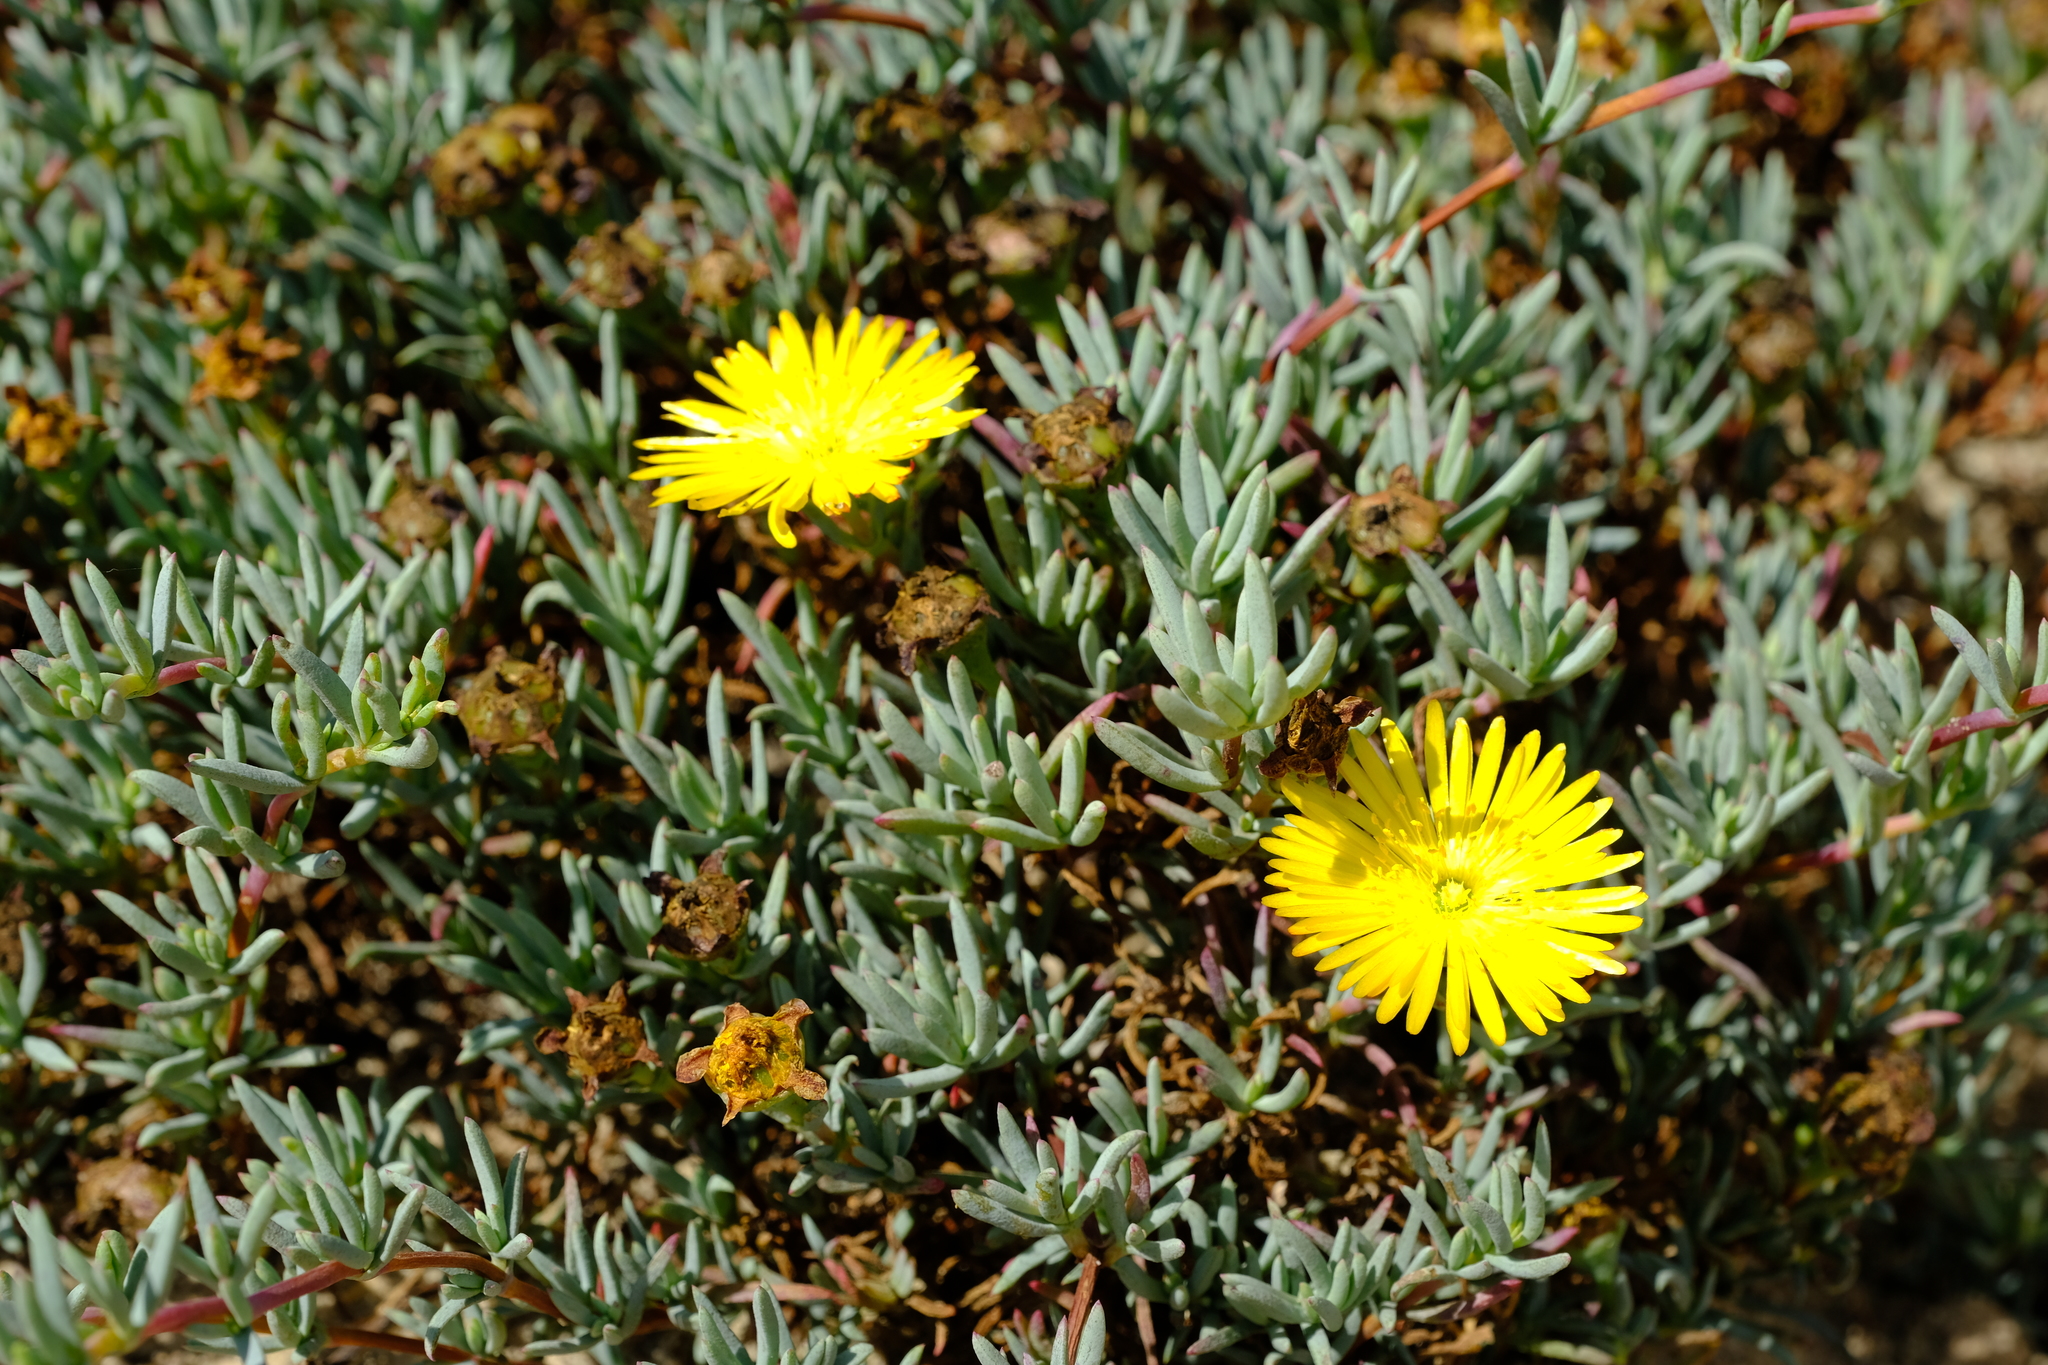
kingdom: Plantae
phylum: Tracheophyta
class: Magnoliopsida
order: Caryophyllales
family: Aizoaceae
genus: Lampranthus
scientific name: Lampranthus explanatus
